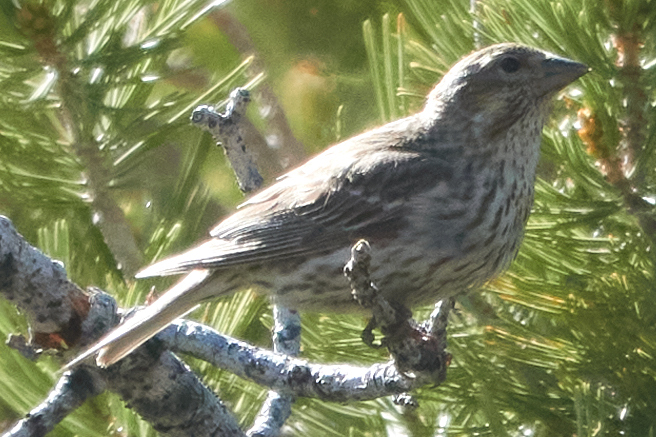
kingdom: Animalia
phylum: Chordata
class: Aves
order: Passeriformes
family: Fringillidae
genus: Haemorhous
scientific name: Haemorhous cassinii
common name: Cassin's finch
